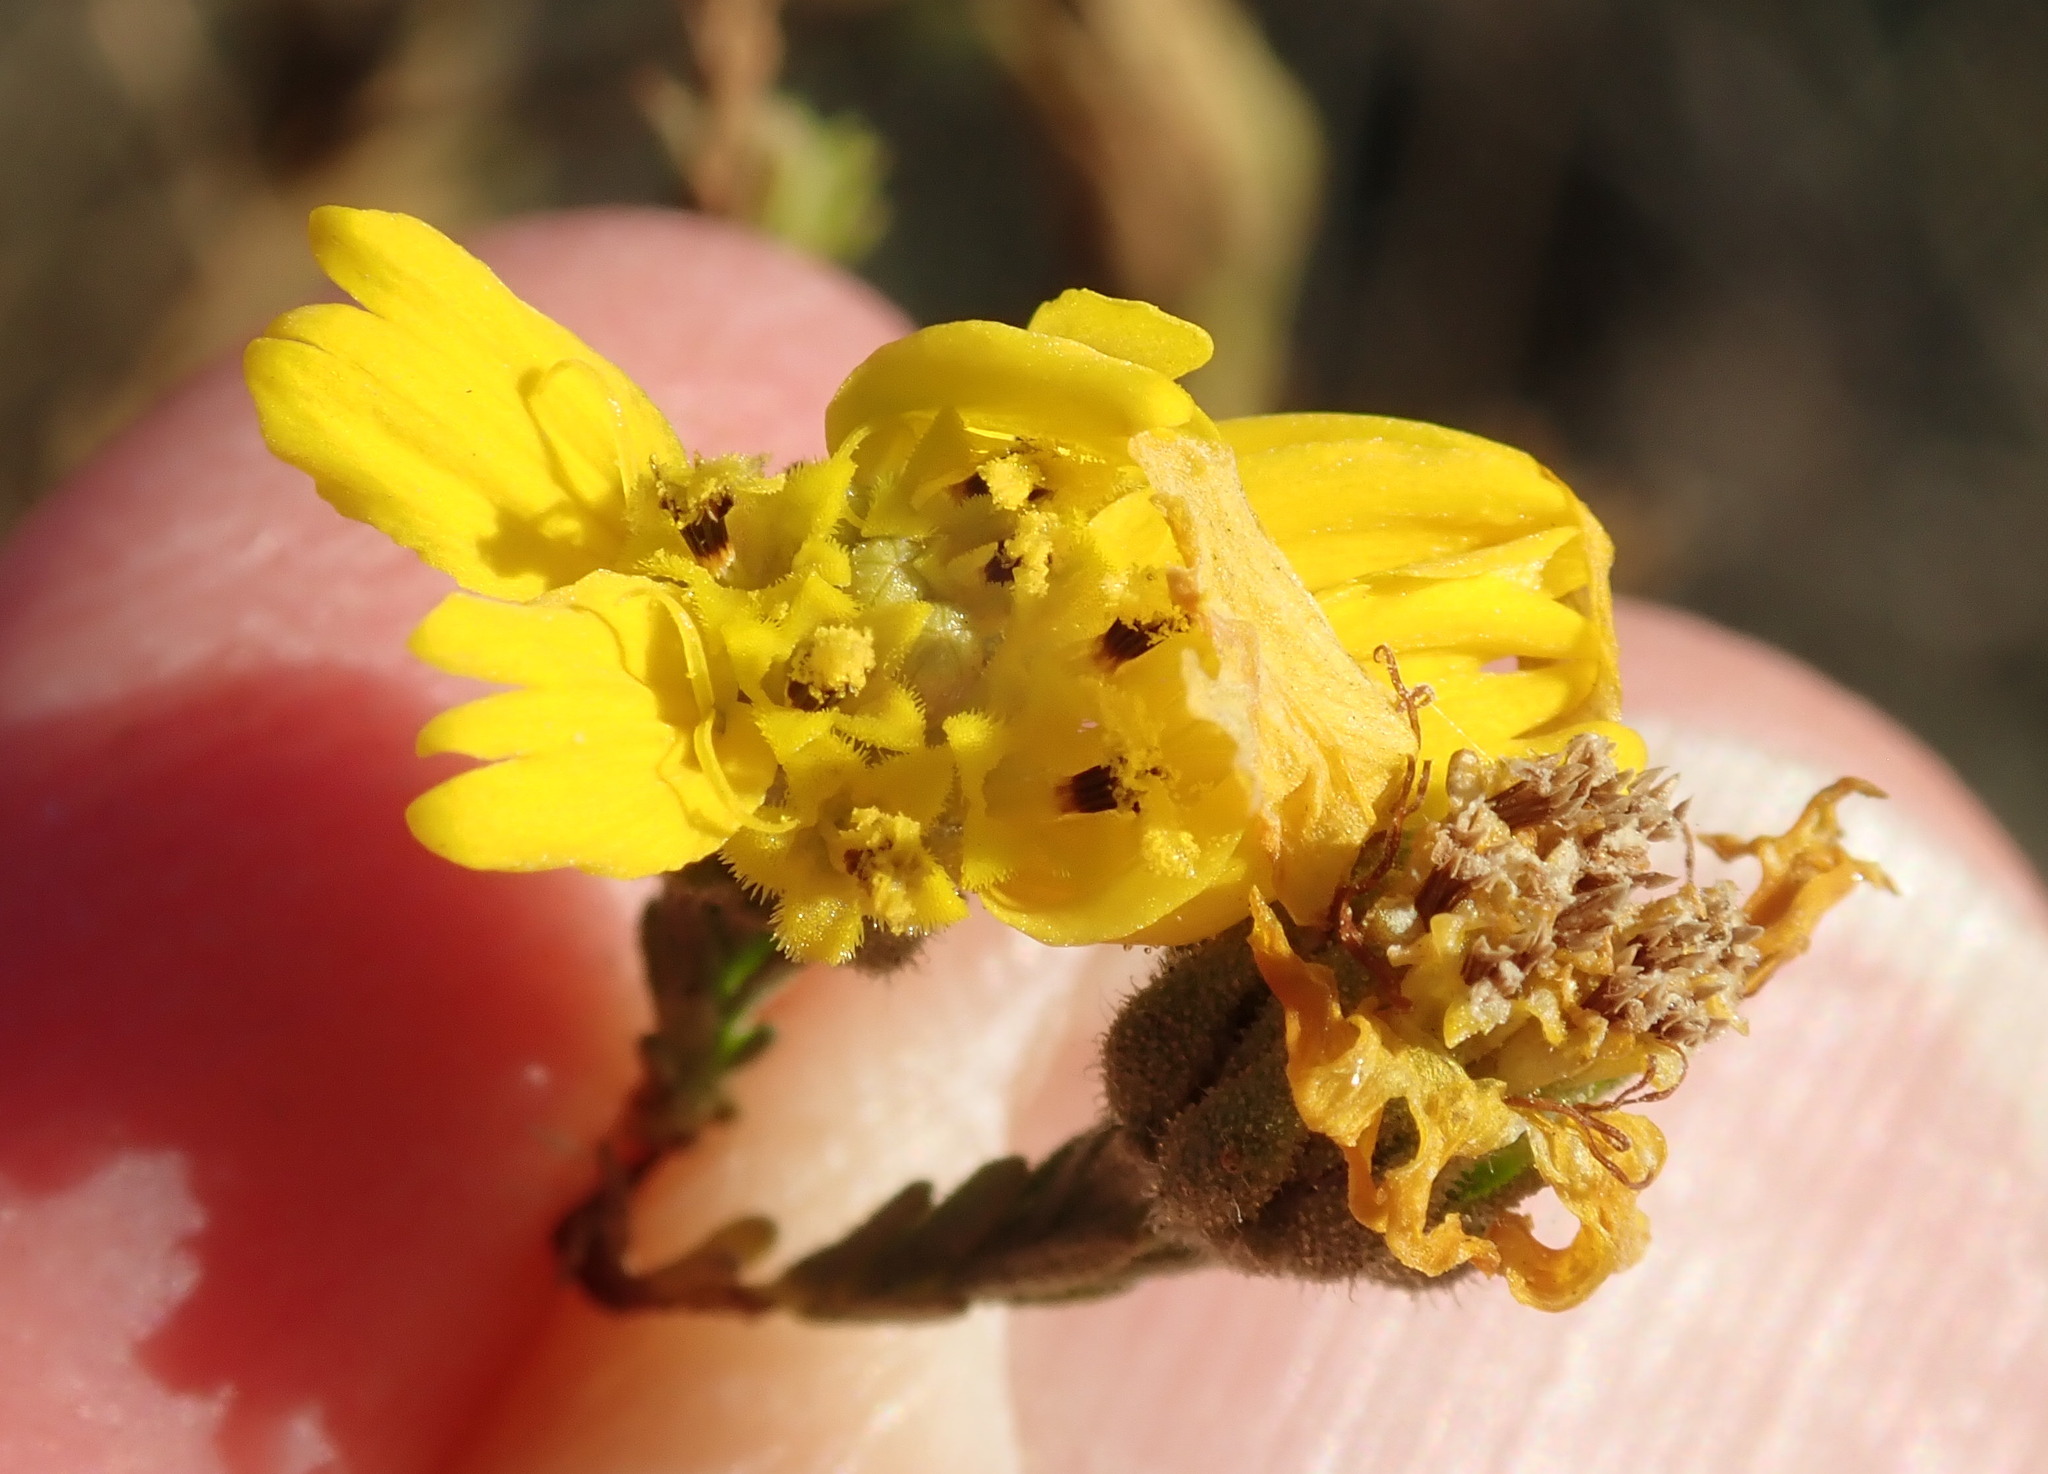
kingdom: Plantae
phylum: Tracheophyta
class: Magnoliopsida
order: Asterales
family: Asteraceae
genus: Deinandra
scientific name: Deinandra paniculata
